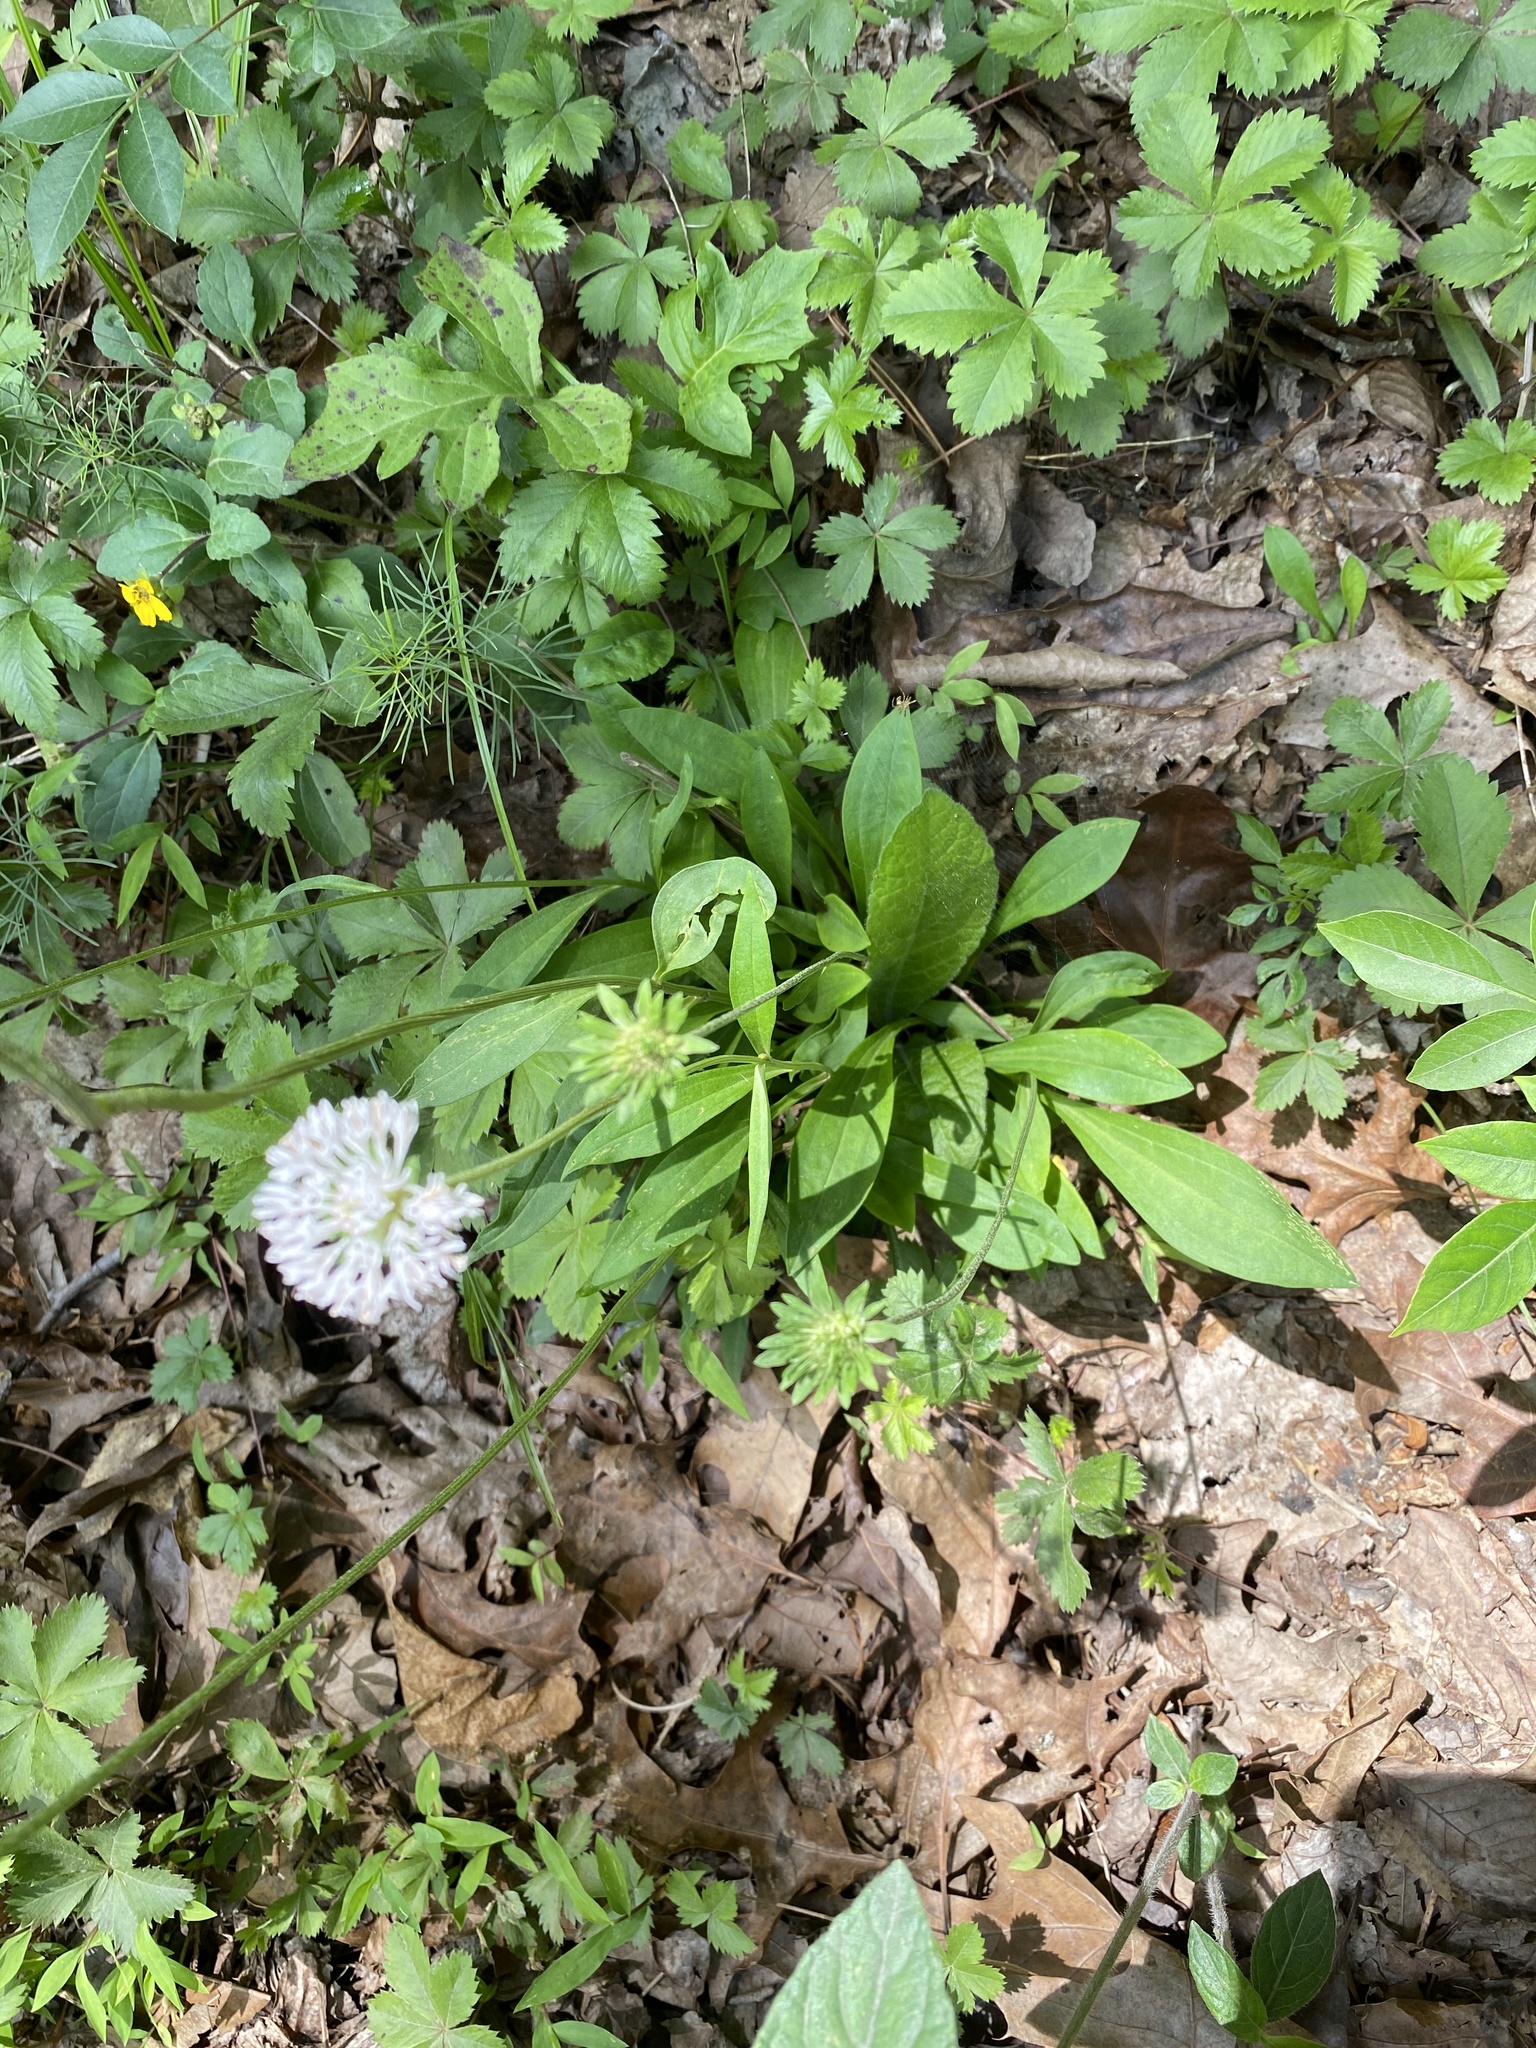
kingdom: Plantae
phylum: Tracheophyta
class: Magnoliopsida
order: Asterales
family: Asteraceae
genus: Marshallia
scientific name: Marshallia obovata
